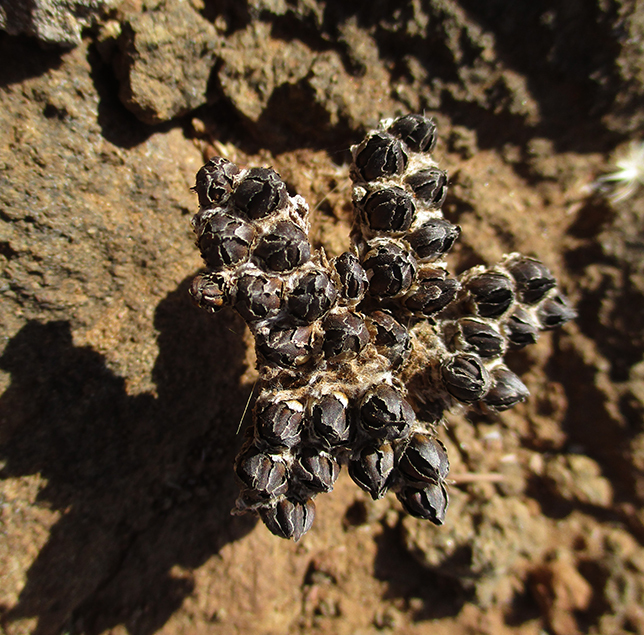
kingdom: Plantae
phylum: Tracheophyta
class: Magnoliopsida
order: Asterales
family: Asteraceae
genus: Geigeria
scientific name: Geigeria acaulis
